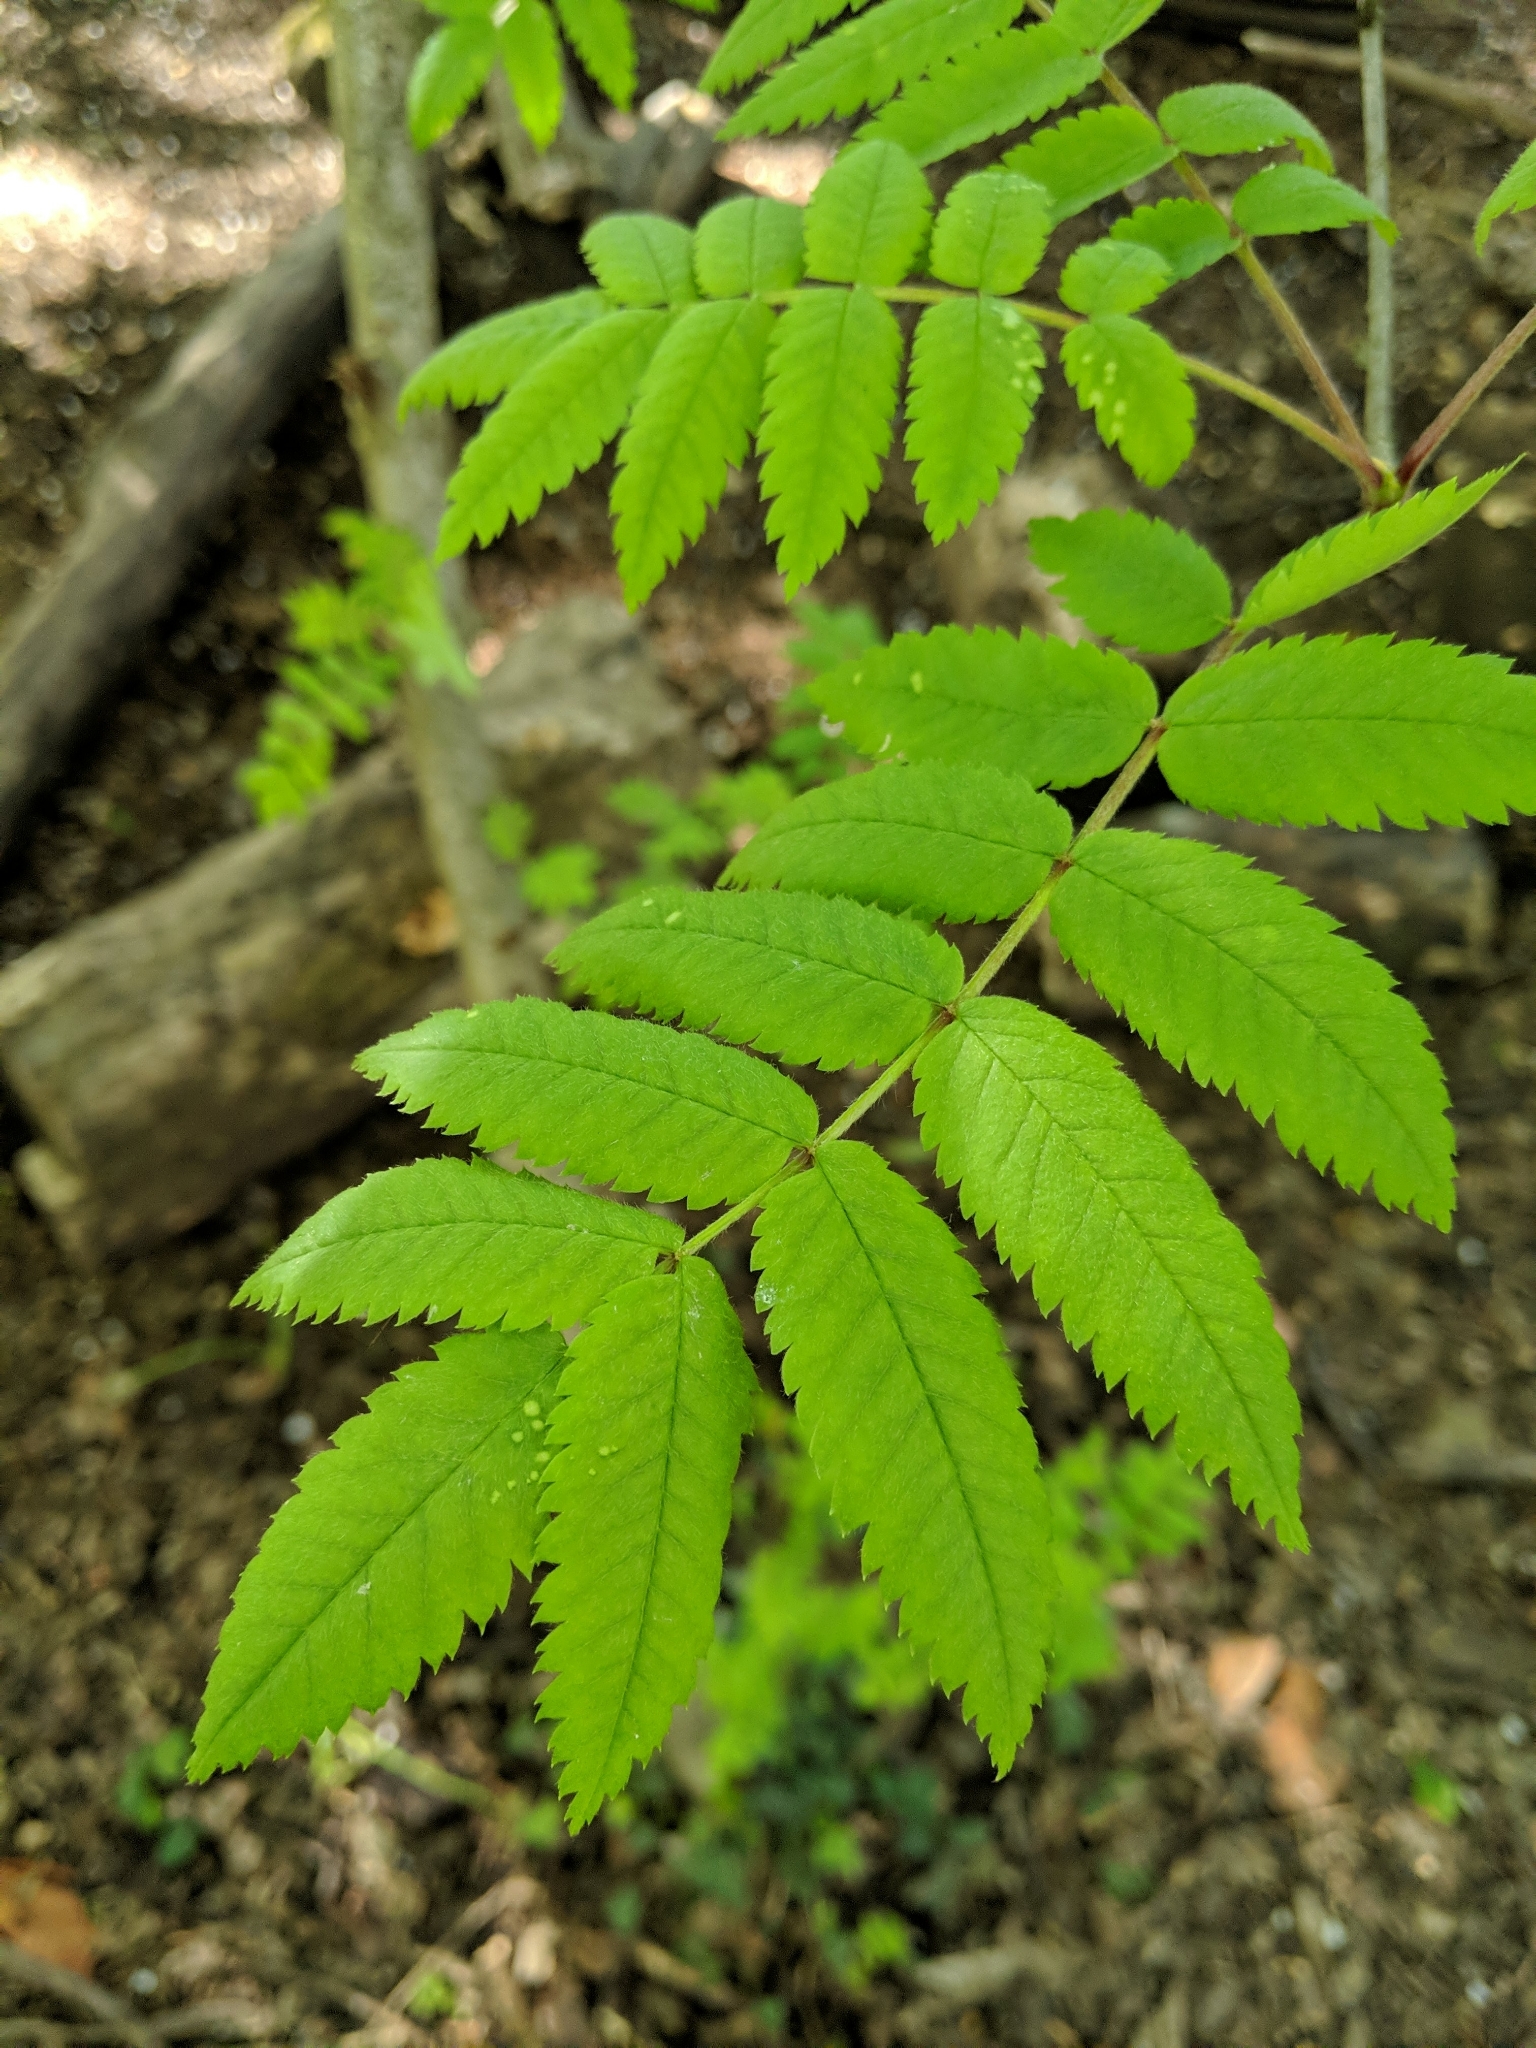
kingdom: Plantae
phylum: Tracheophyta
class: Magnoliopsida
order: Rosales
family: Rosaceae
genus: Sorbus
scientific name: Sorbus aucuparia
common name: Rowan
